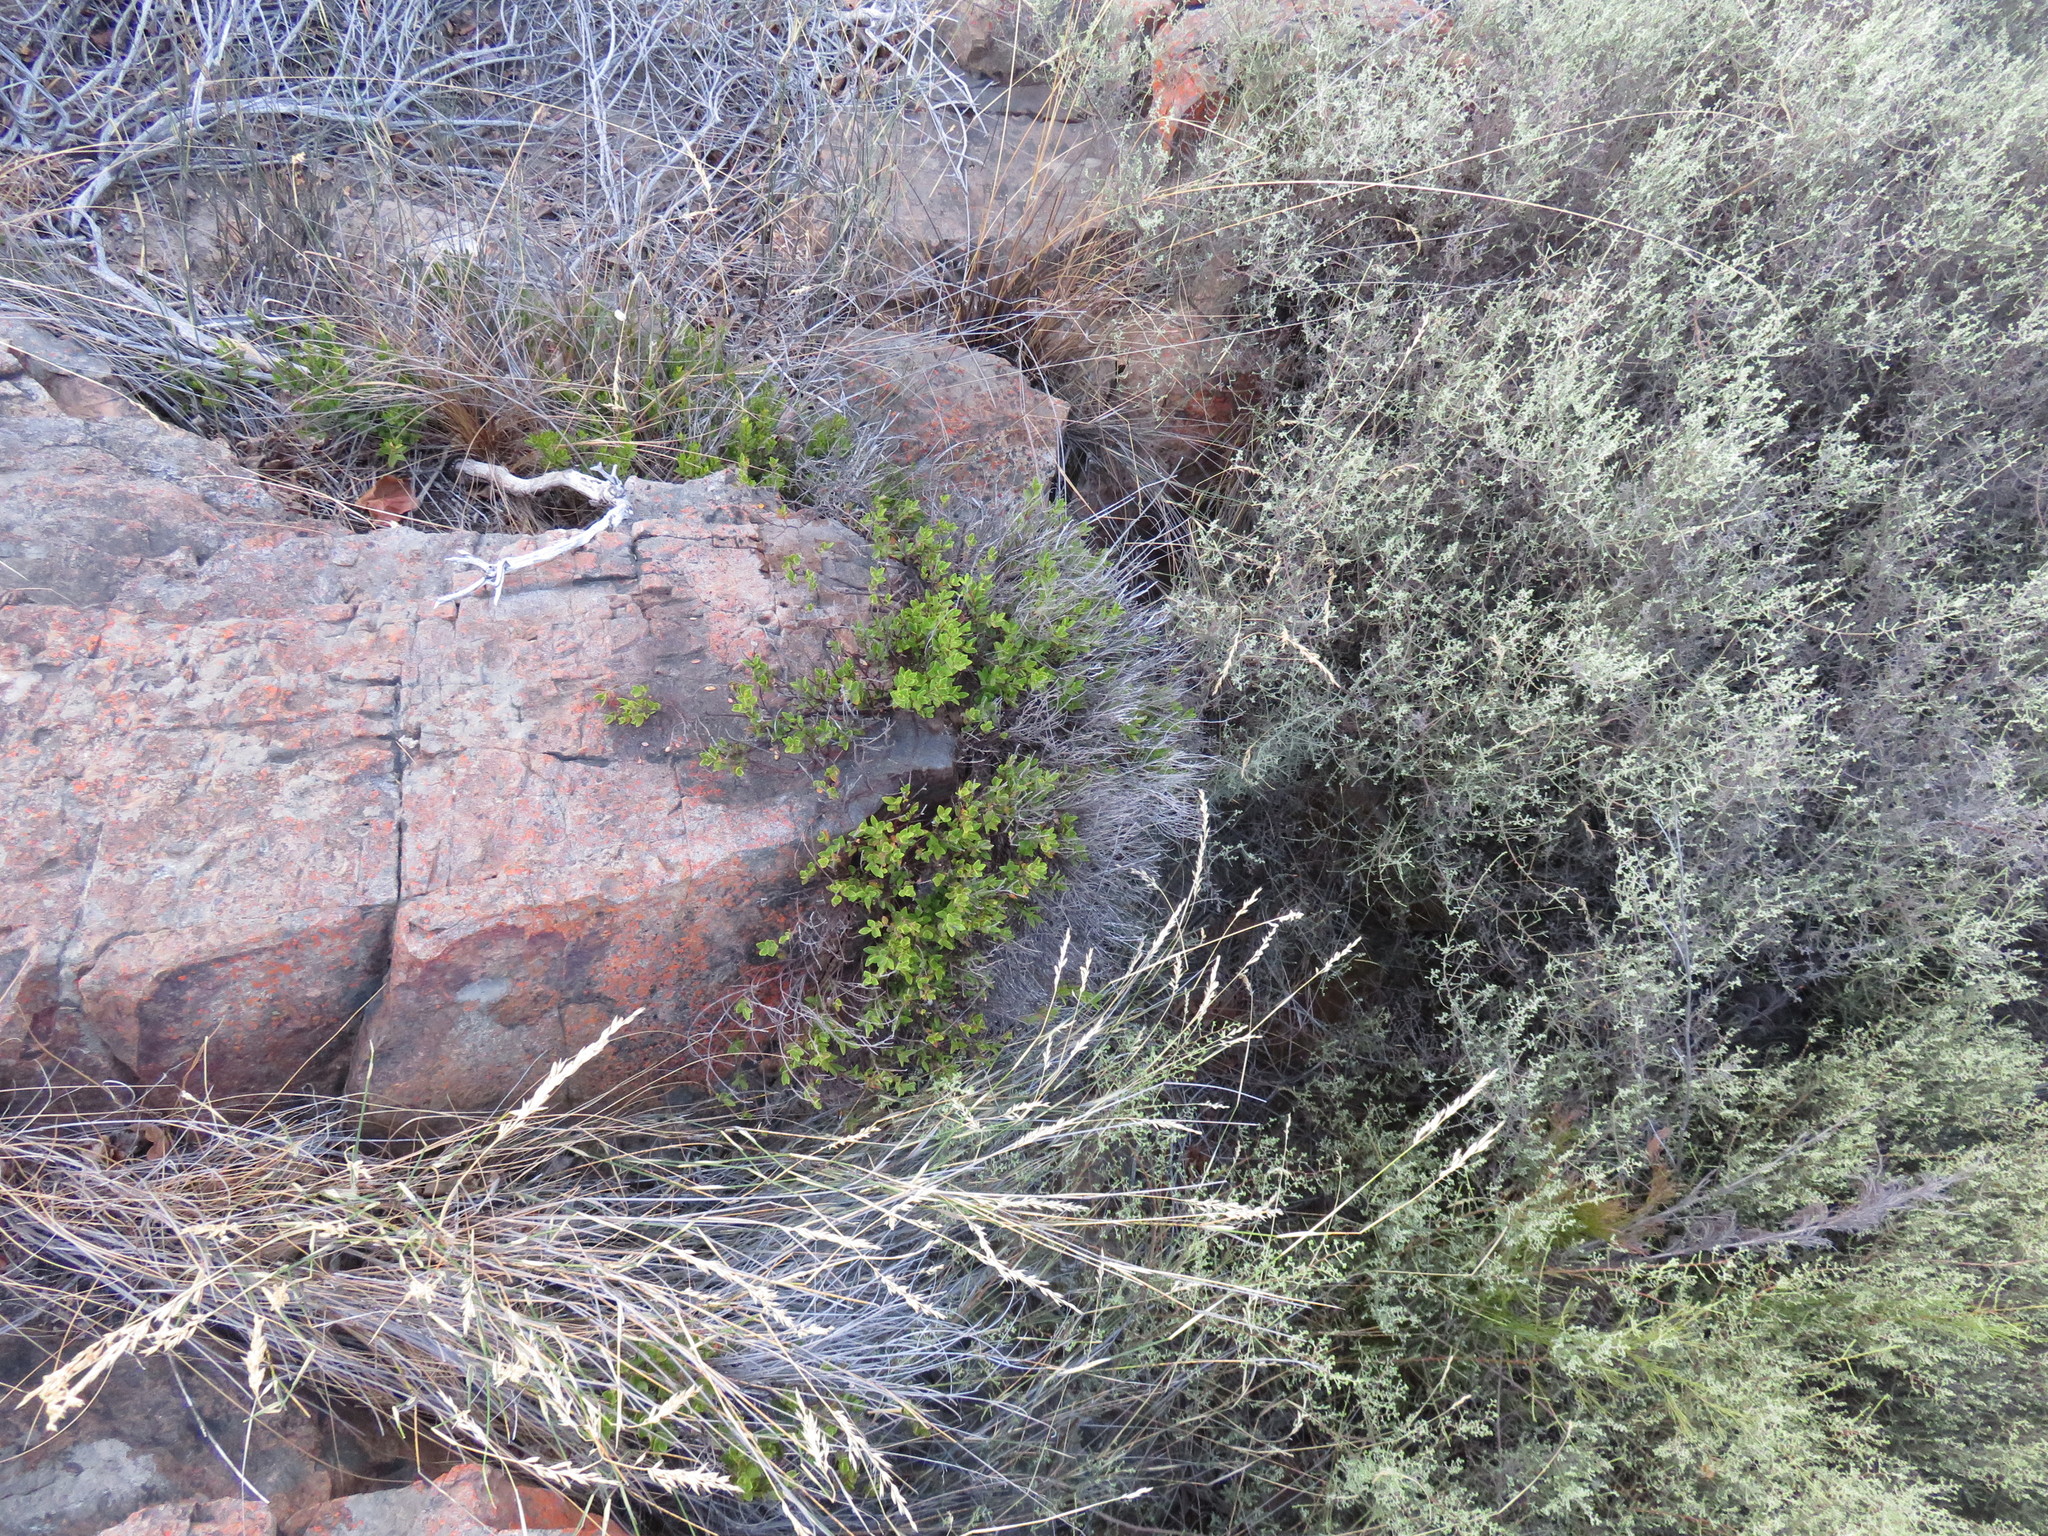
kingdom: Plantae
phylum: Tracheophyta
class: Magnoliopsida
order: Ericales
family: Ebenaceae
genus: Diospyros
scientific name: Diospyros glabra
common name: Fynbos star apple
